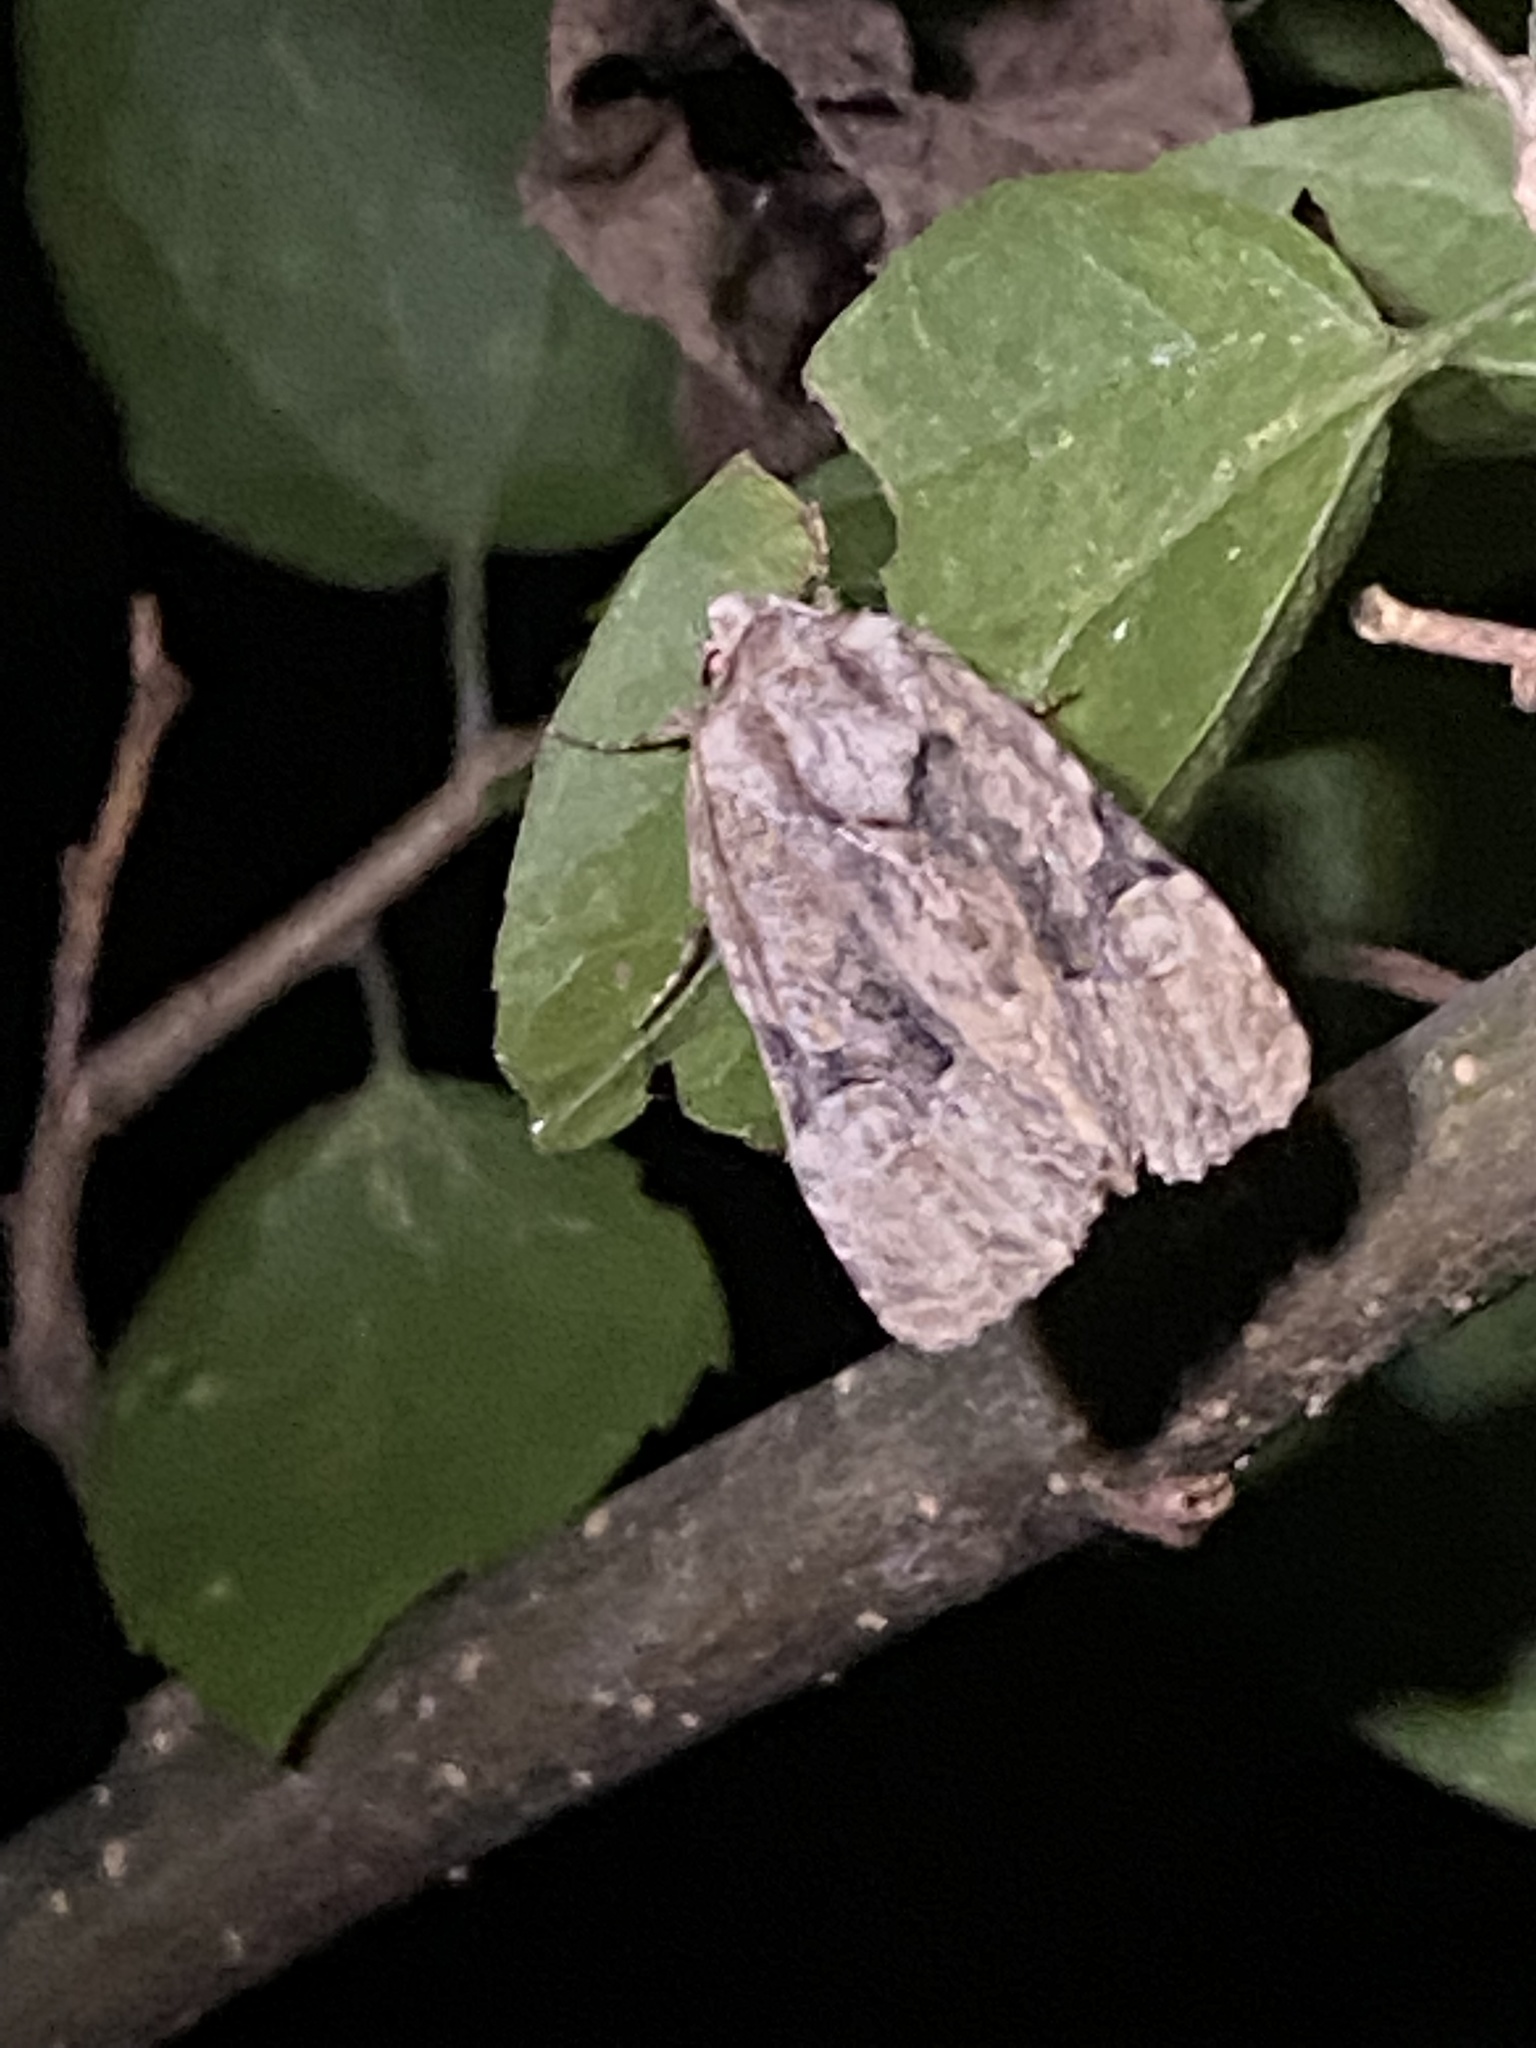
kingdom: Animalia
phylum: Arthropoda
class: Insecta
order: Lepidoptera
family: Noctuidae
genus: Oligia
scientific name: Oligia modica
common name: Black-banded brocade
